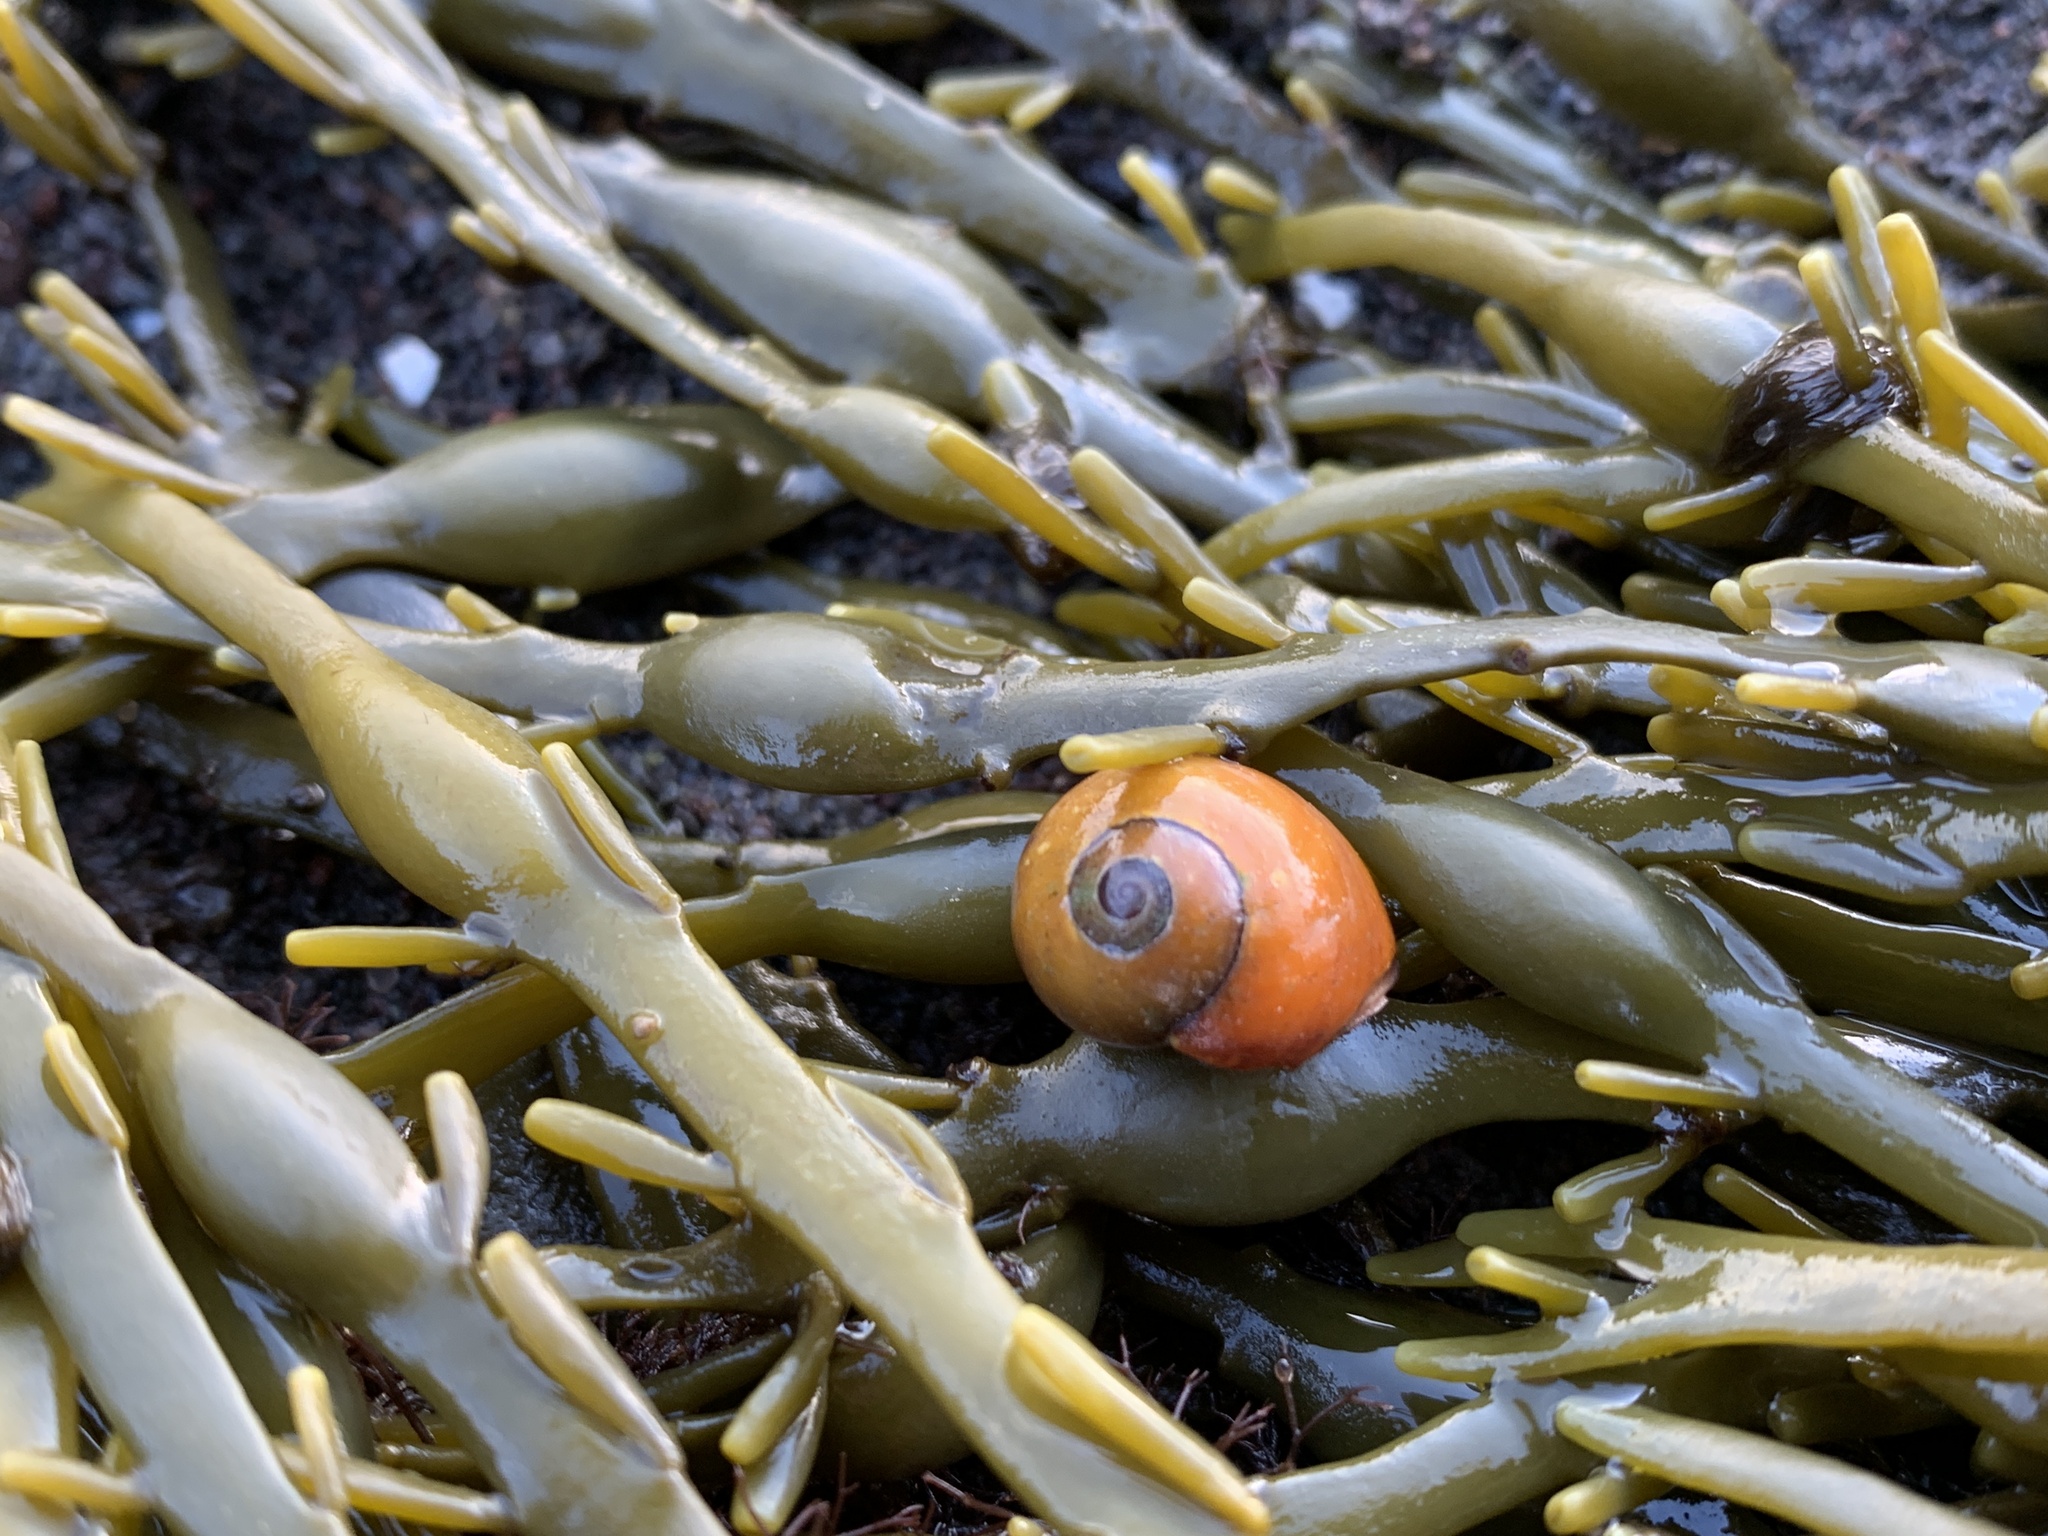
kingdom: Animalia
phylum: Mollusca
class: Gastropoda
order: Littorinimorpha
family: Littorinidae
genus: Littorina
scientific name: Littorina obtusata
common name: Flat periwinkle
